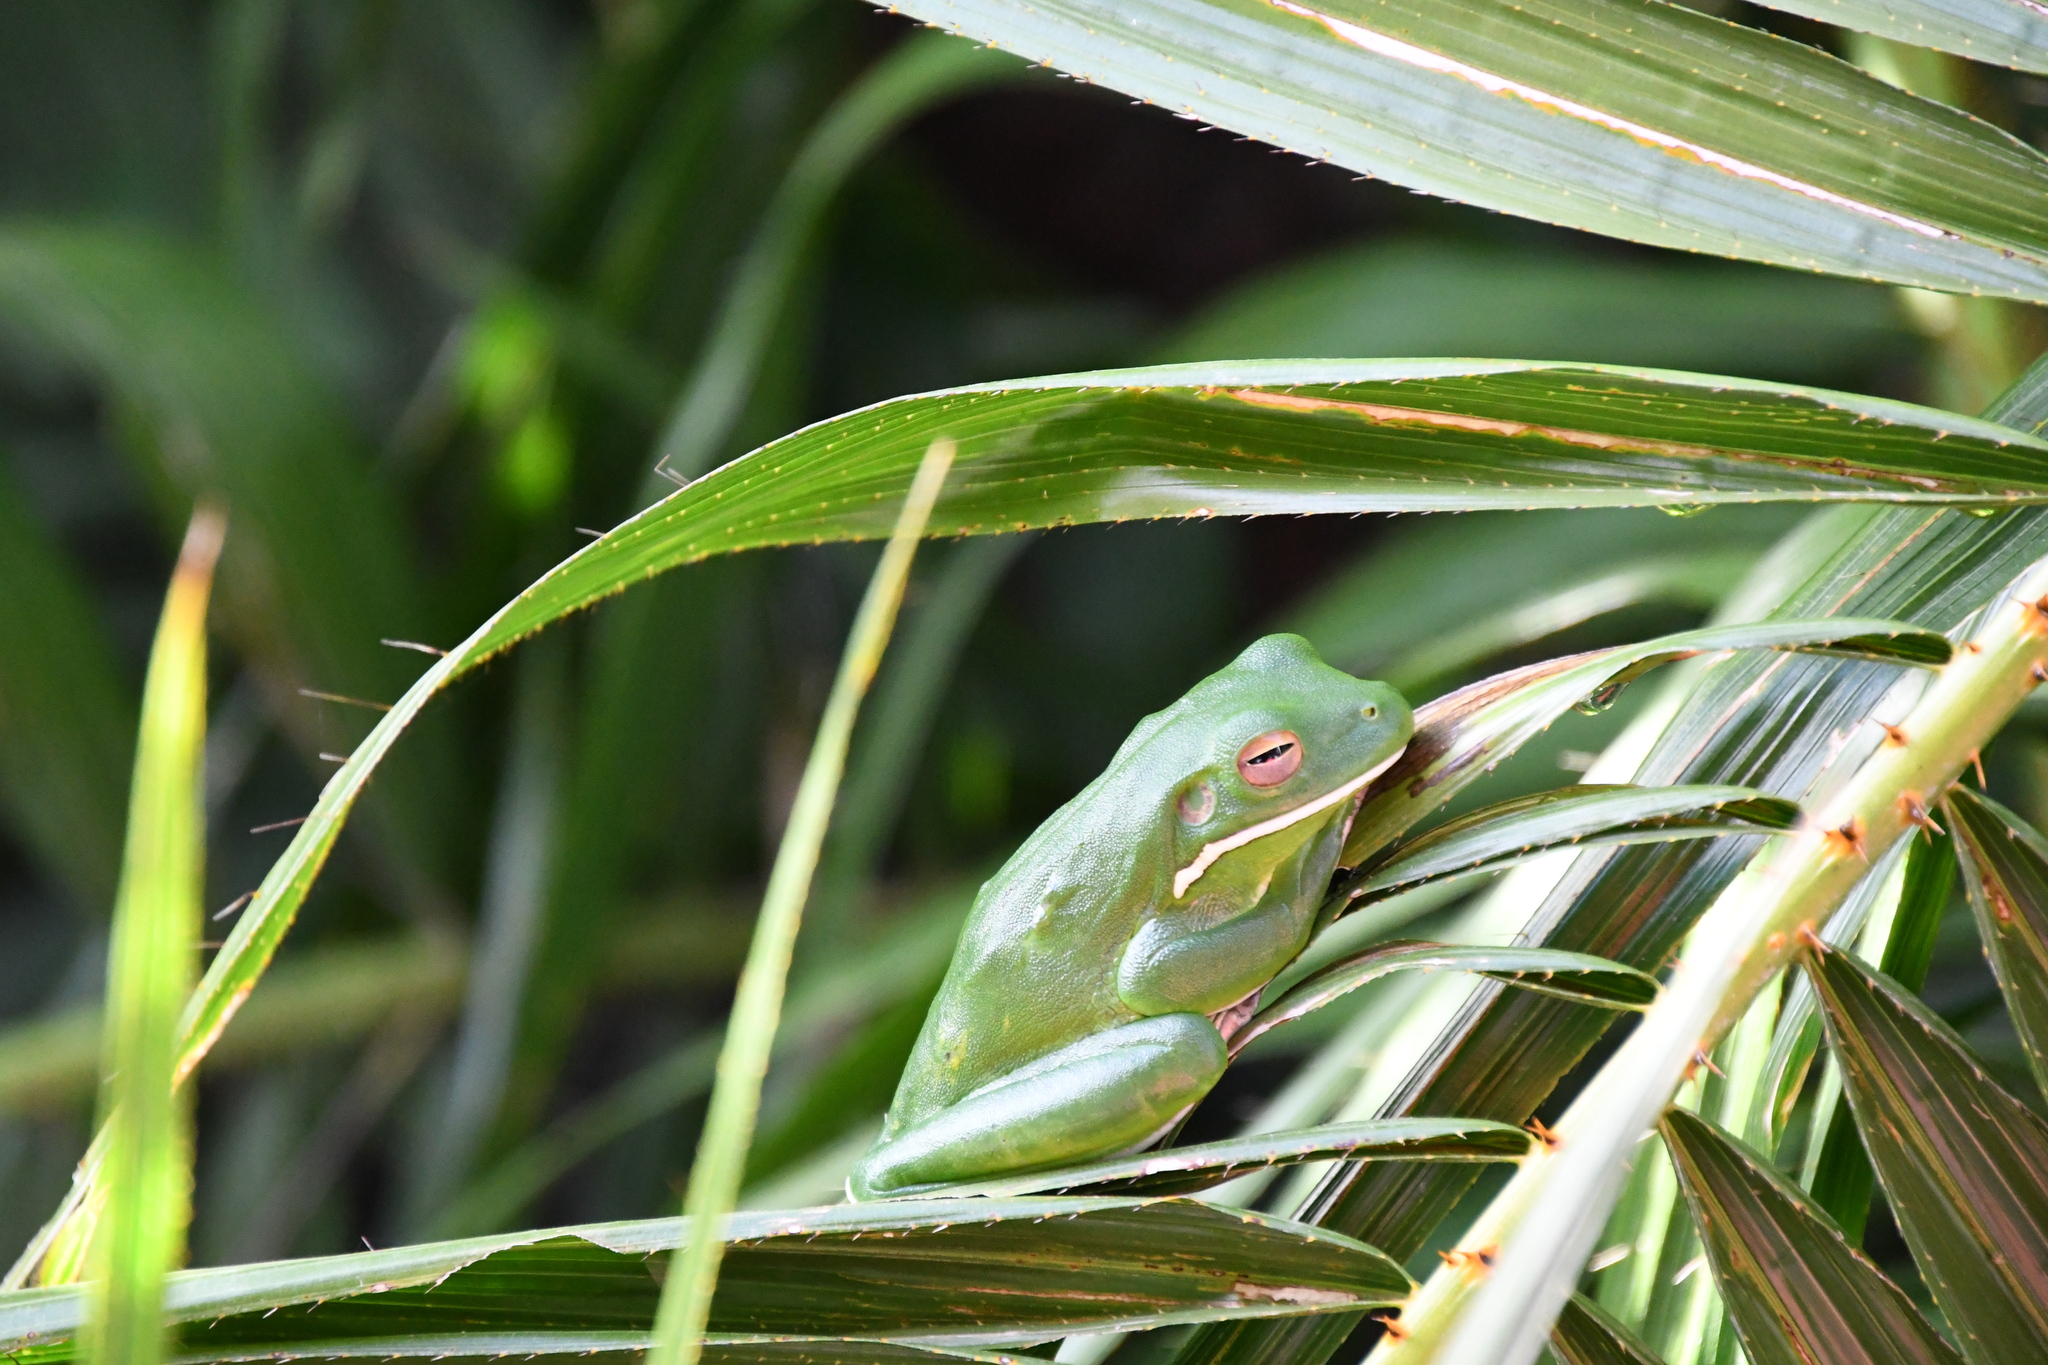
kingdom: Animalia
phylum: Chordata
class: Amphibia
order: Anura
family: Pelodryadidae
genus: Nyctimystes
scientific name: Nyctimystes infrafrenatus
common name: Australian giant treefrog
